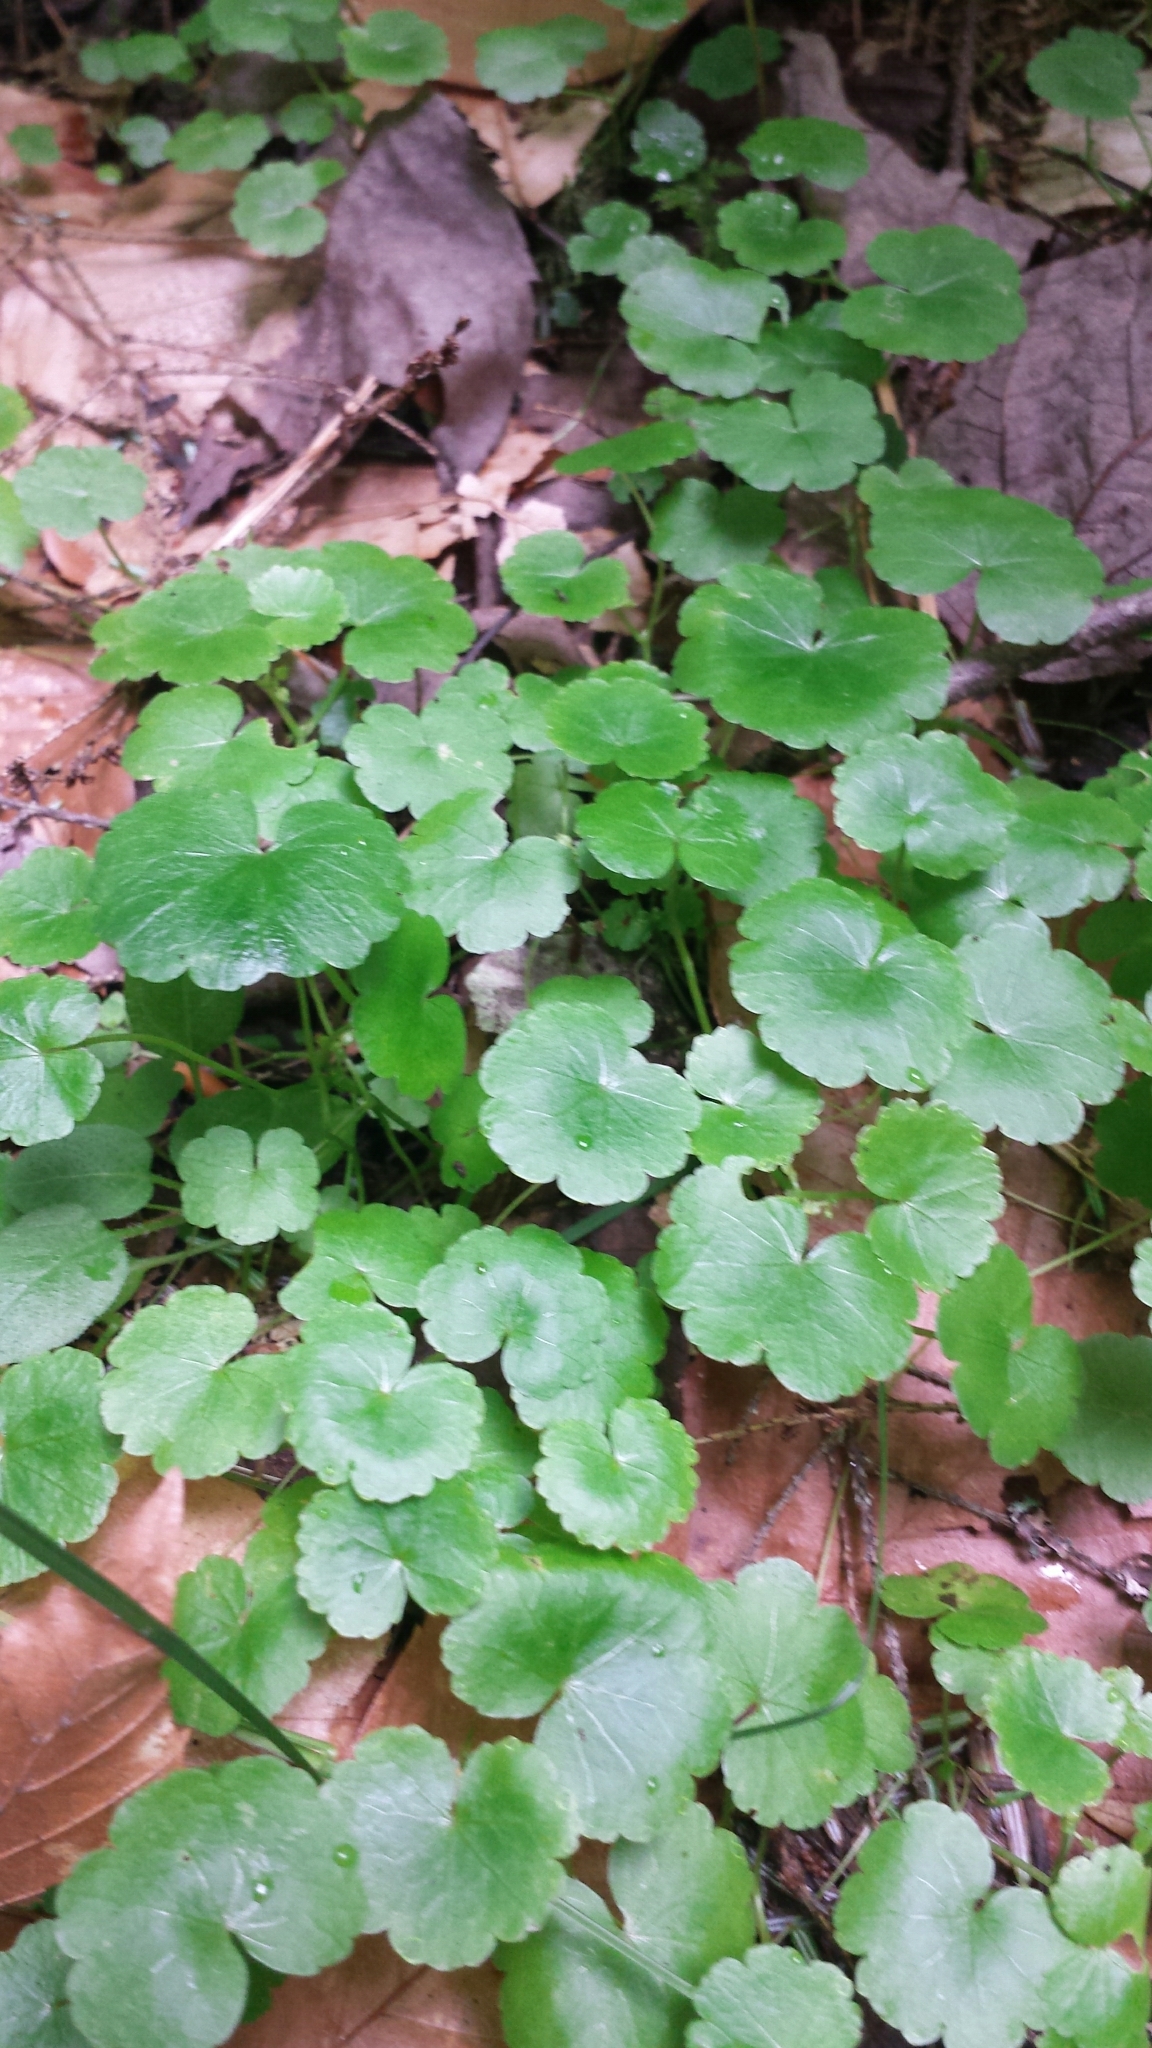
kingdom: Plantae
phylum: Tracheophyta
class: Magnoliopsida
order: Apiales
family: Araliaceae
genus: Hydrocotyle
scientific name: Hydrocotyle americana
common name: American water-pennywort
